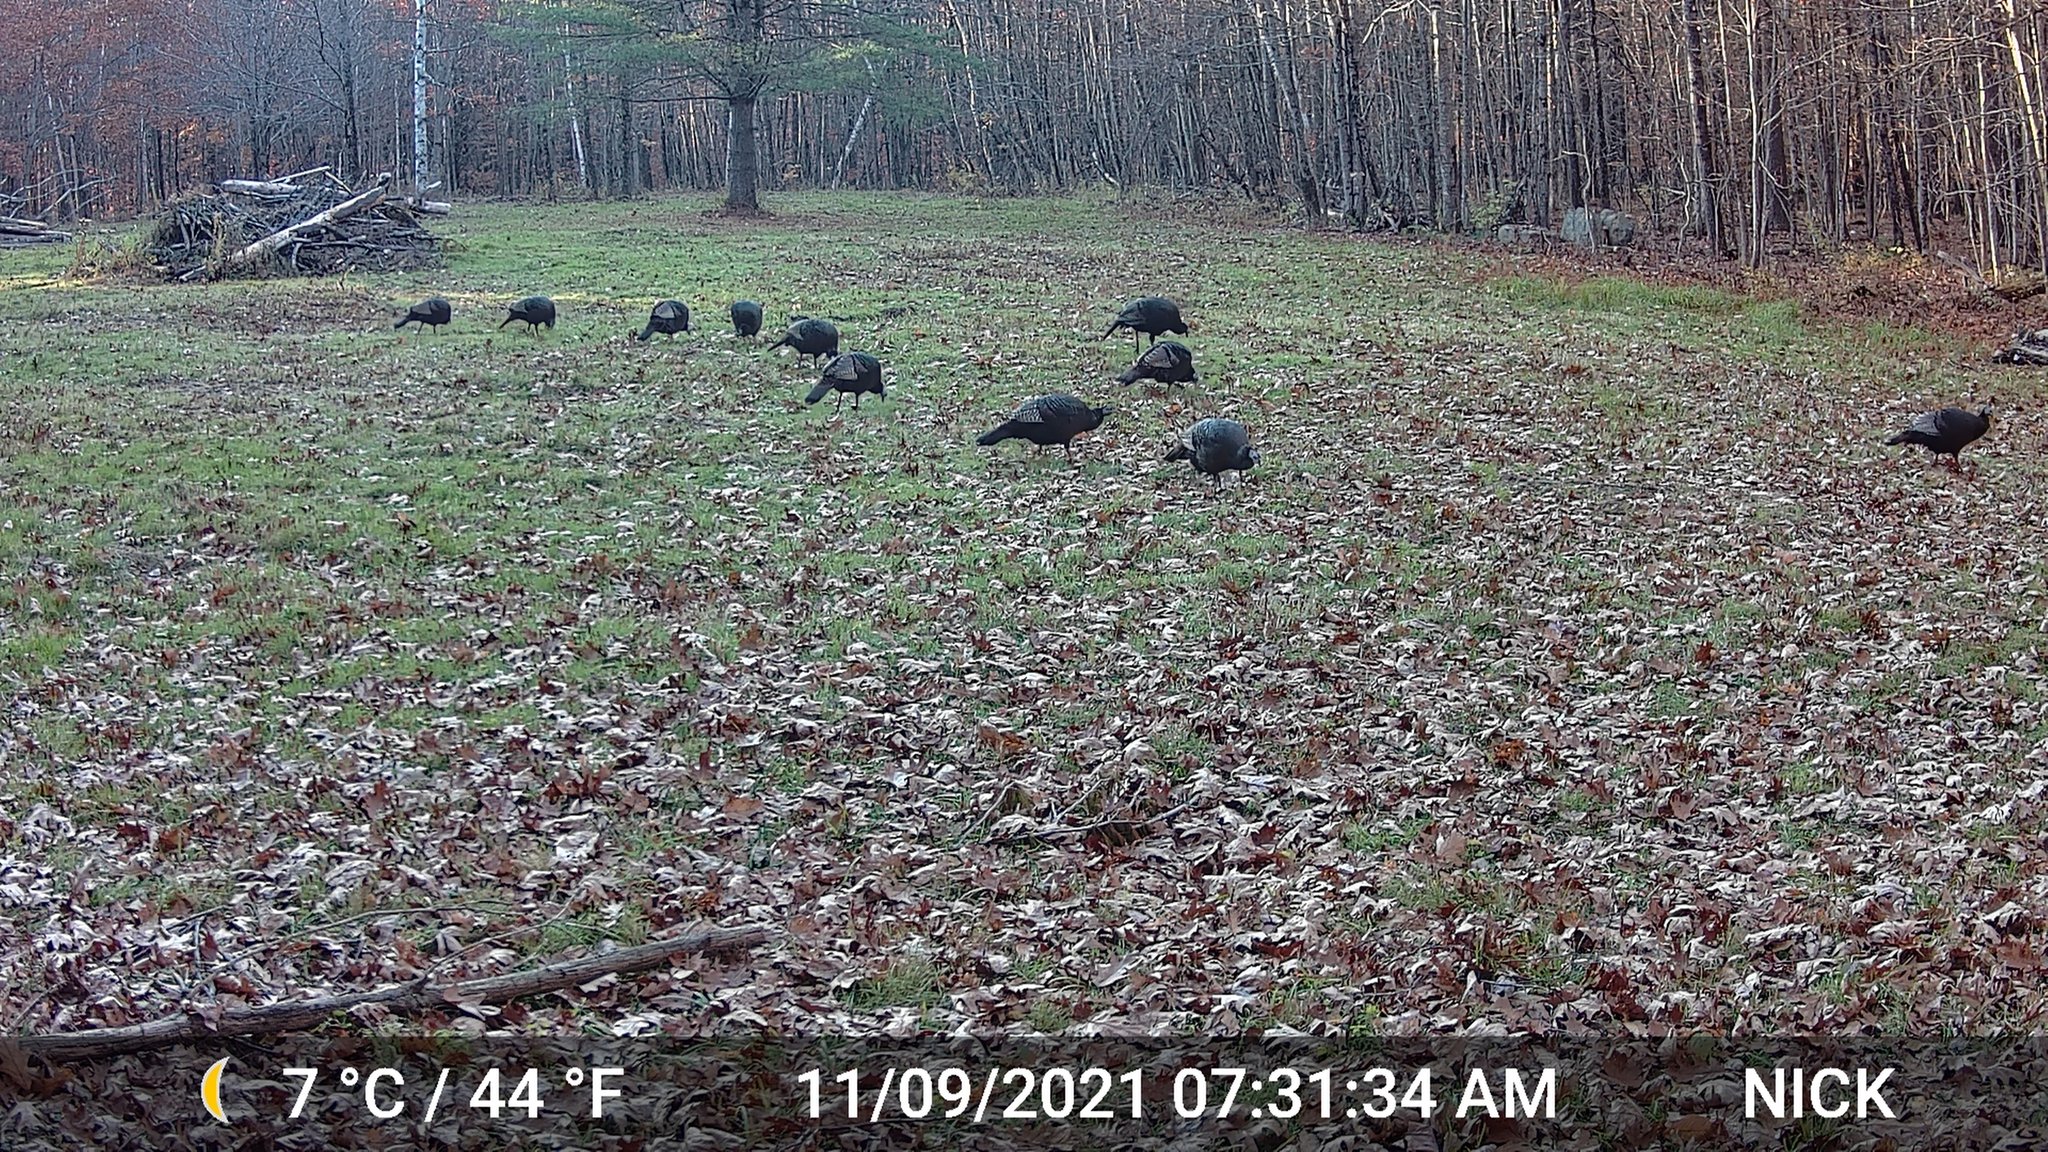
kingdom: Animalia
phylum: Chordata
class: Aves
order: Galliformes
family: Phasianidae
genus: Meleagris
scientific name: Meleagris gallopavo
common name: Wild turkey
